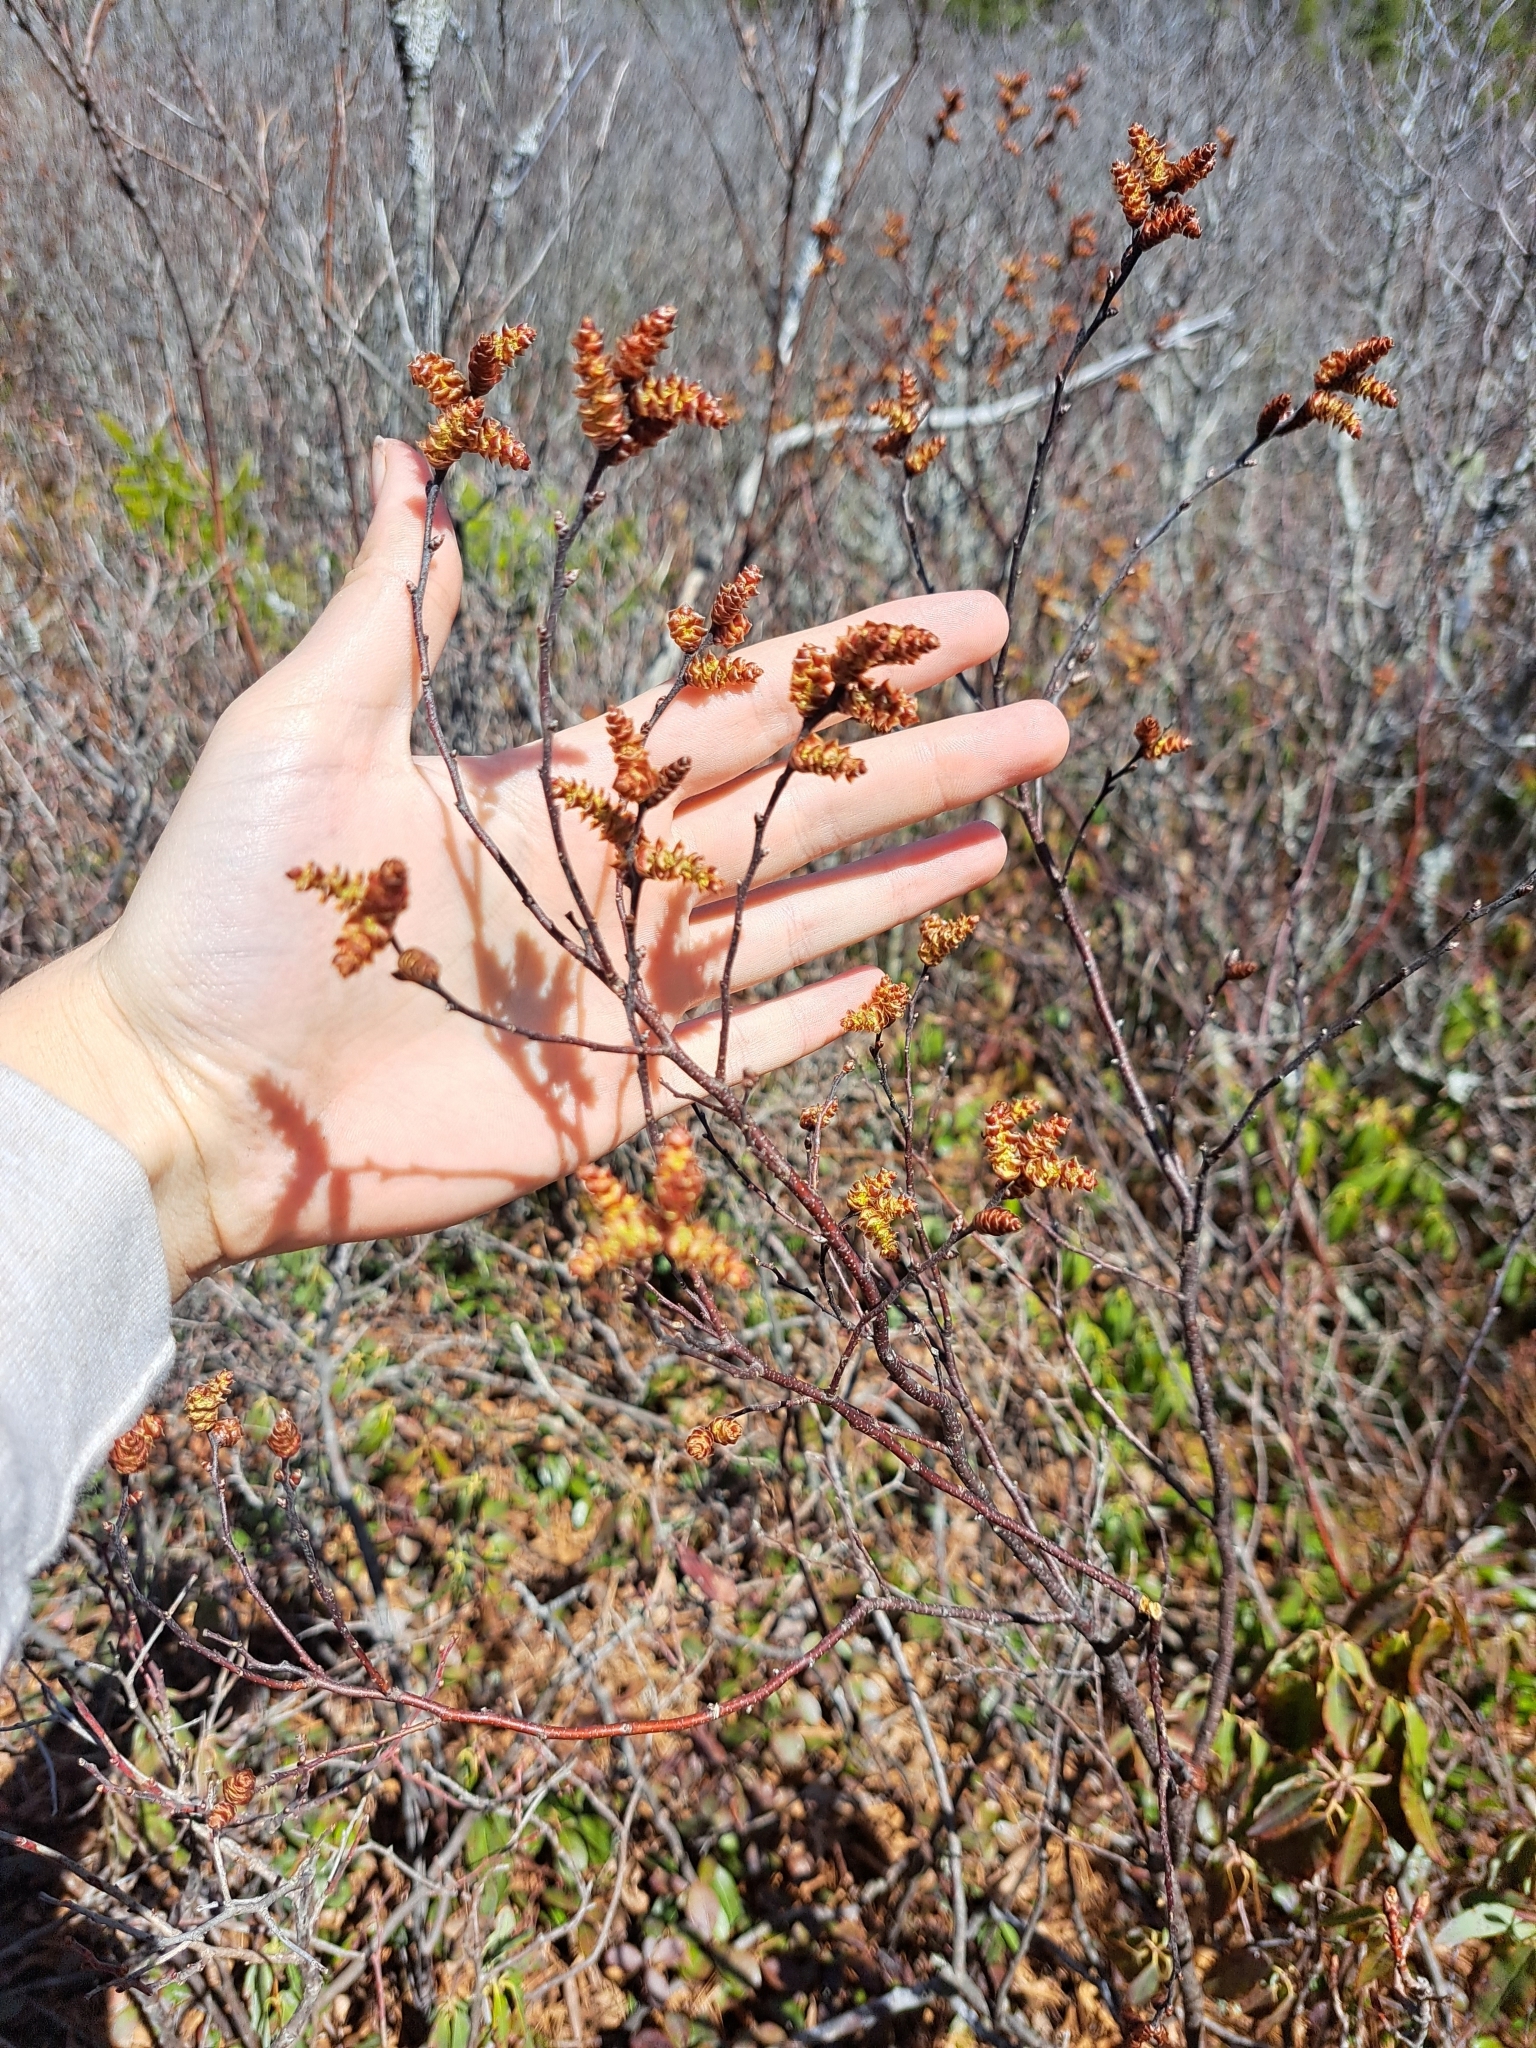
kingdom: Plantae
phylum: Tracheophyta
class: Magnoliopsida
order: Fagales
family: Myricaceae
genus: Myrica
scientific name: Myrica gale
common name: Sweet gale
